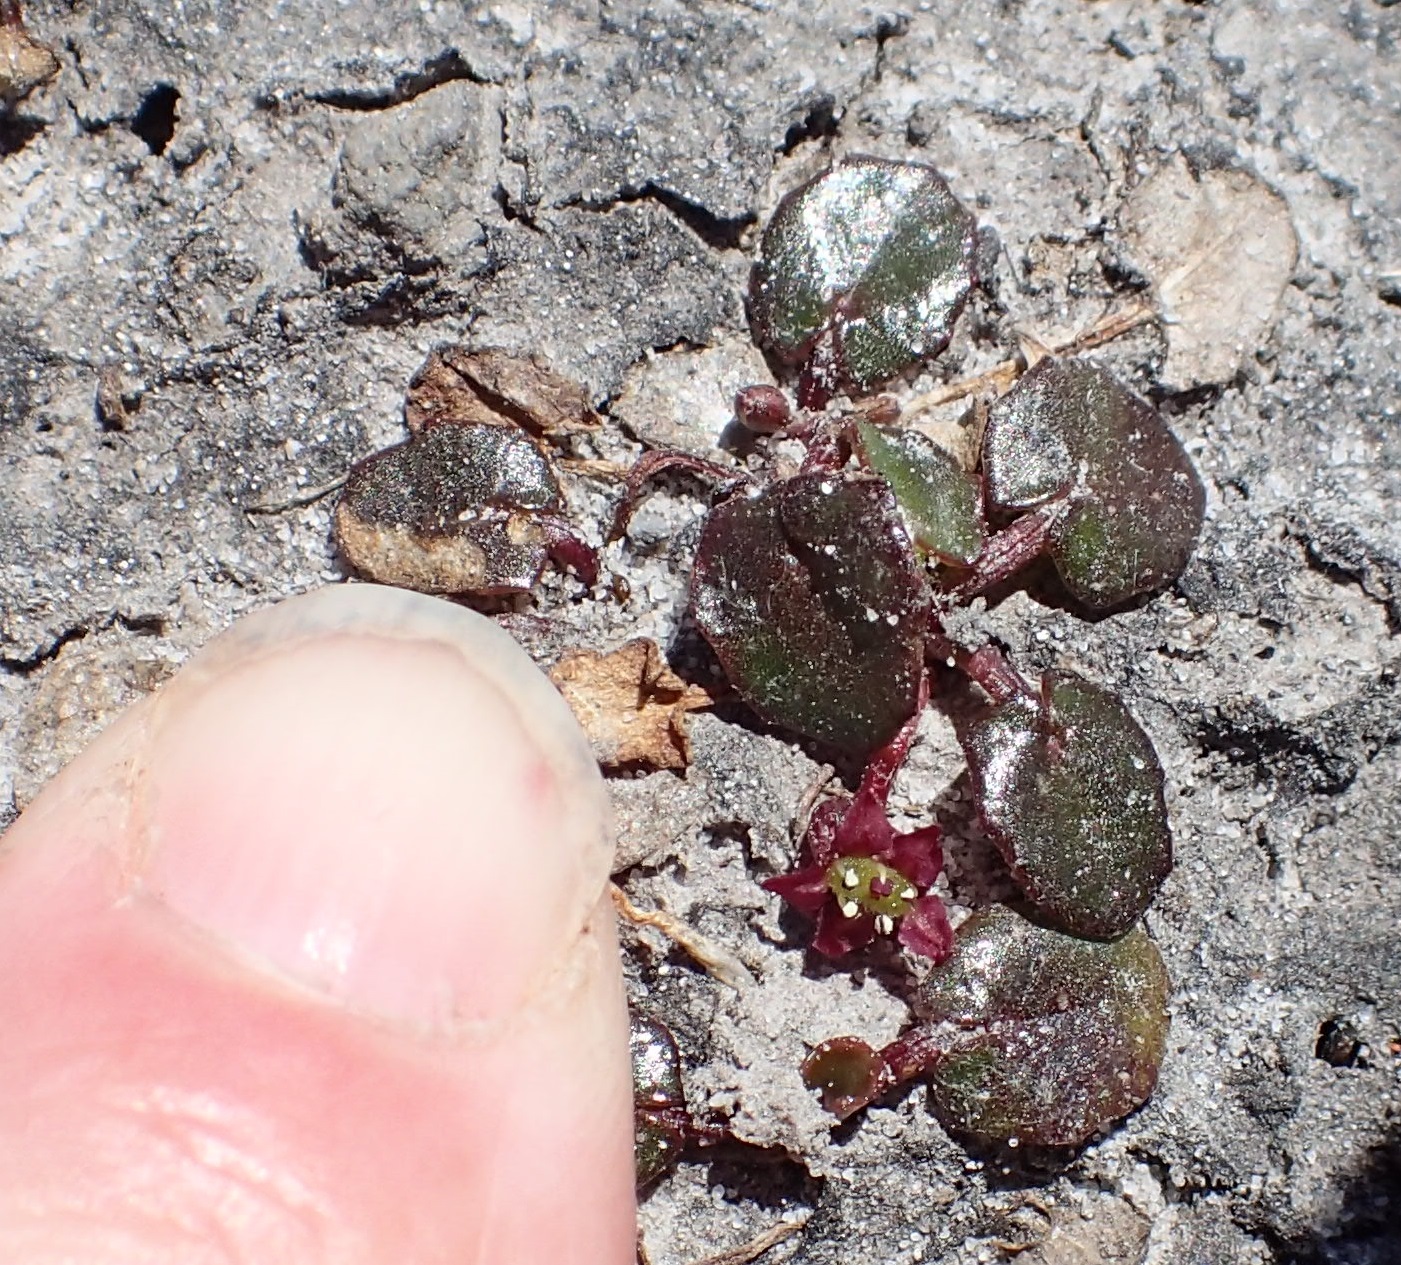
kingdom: Plantae
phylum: Tracheophyta
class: Magnoliopsida
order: Apiales
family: Apiaceae
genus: Centella
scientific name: Centella cordifolia
